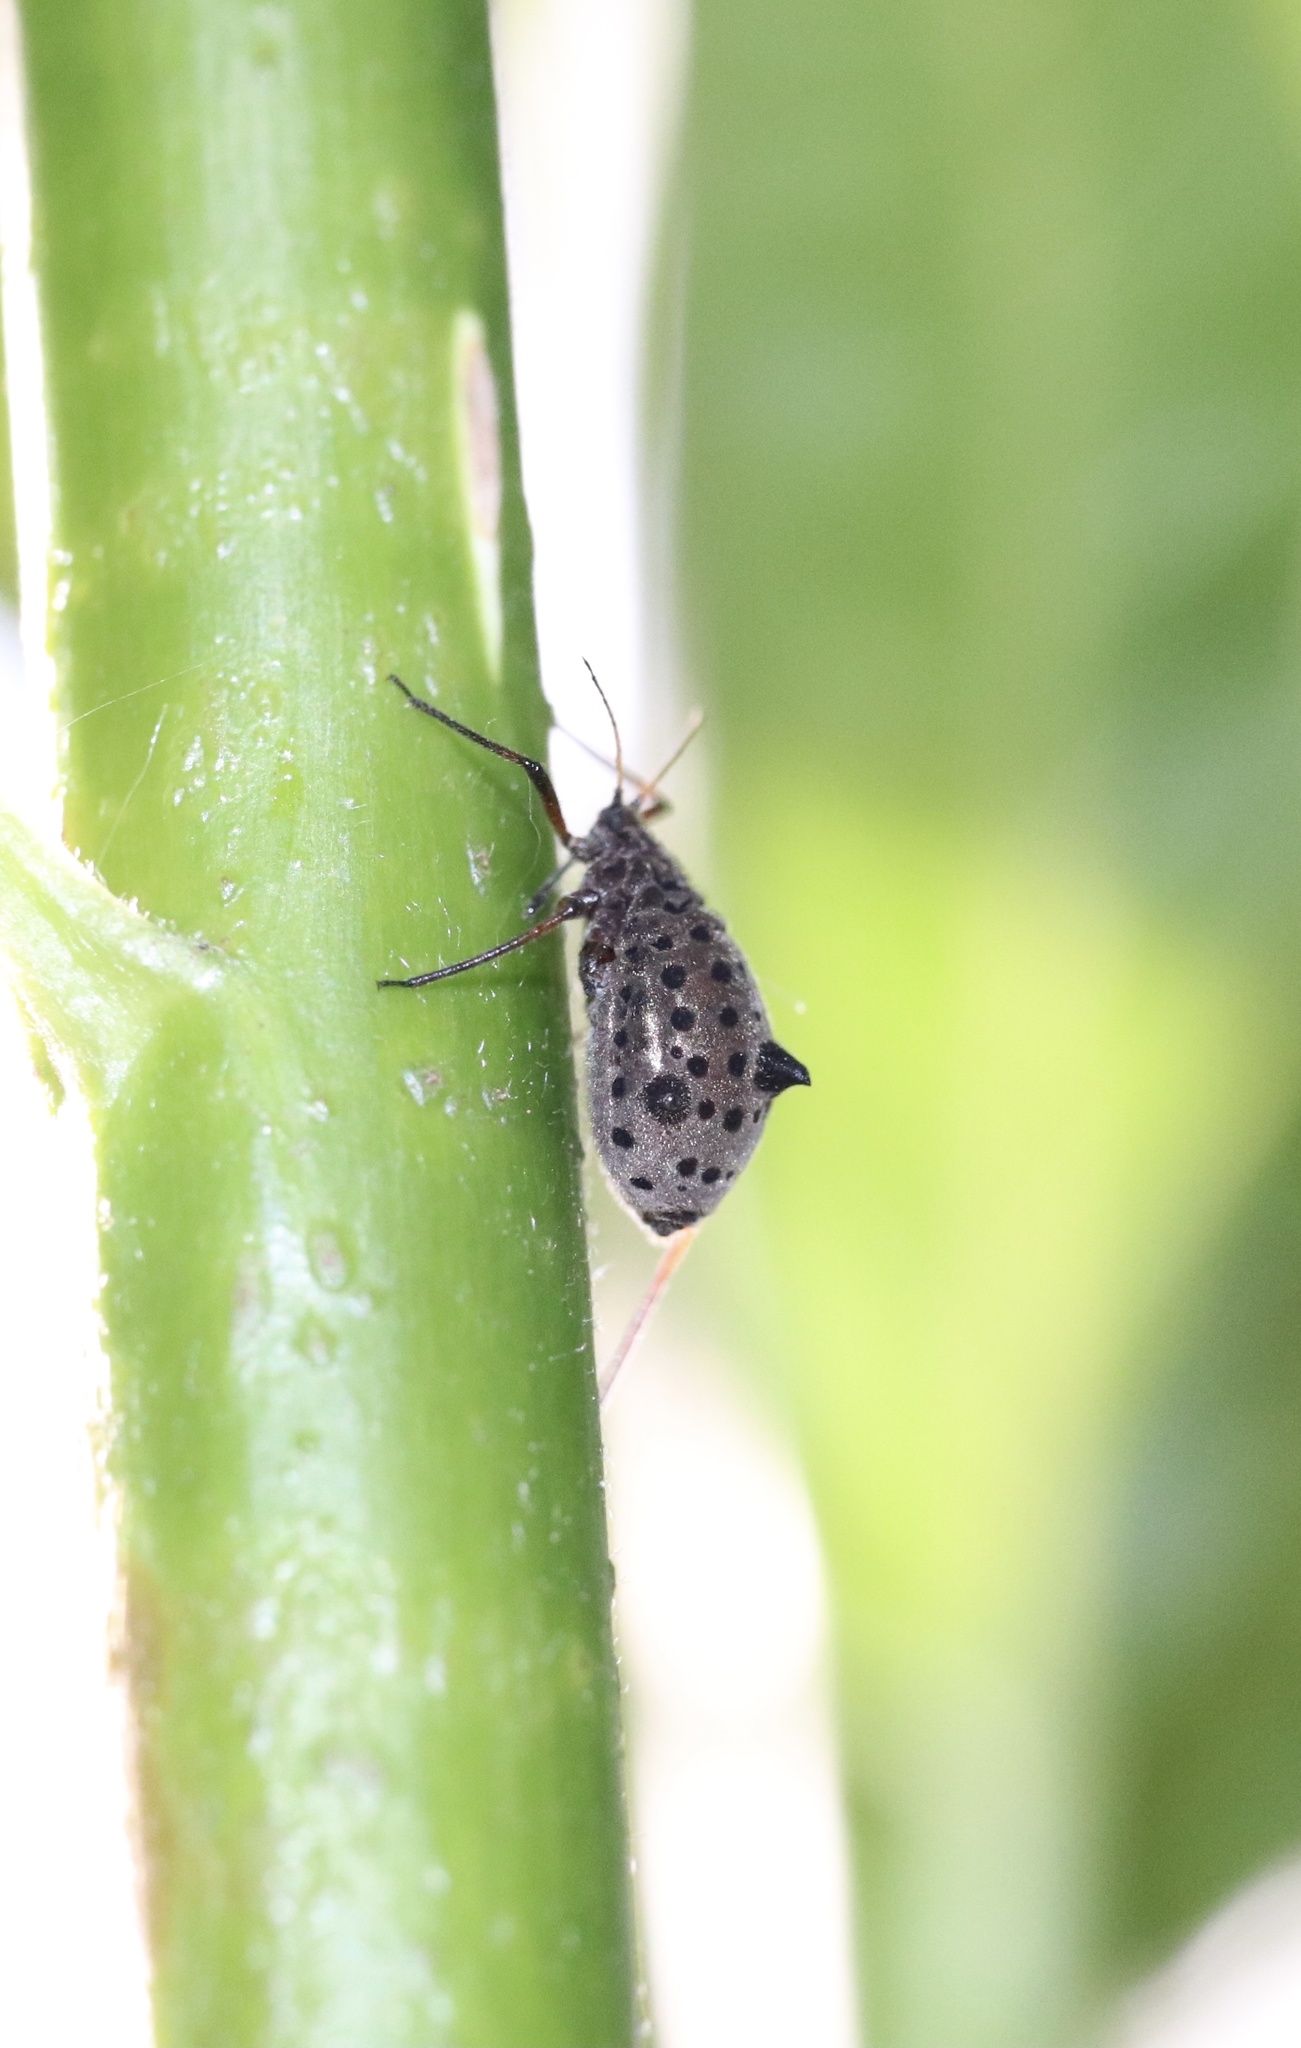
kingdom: Animalia
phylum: Arthropoda
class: Insecta
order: Hemiptera
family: Aphididae
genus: Tuberolachnus
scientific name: Tuberolachnus salignus
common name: Giant willow aphid
